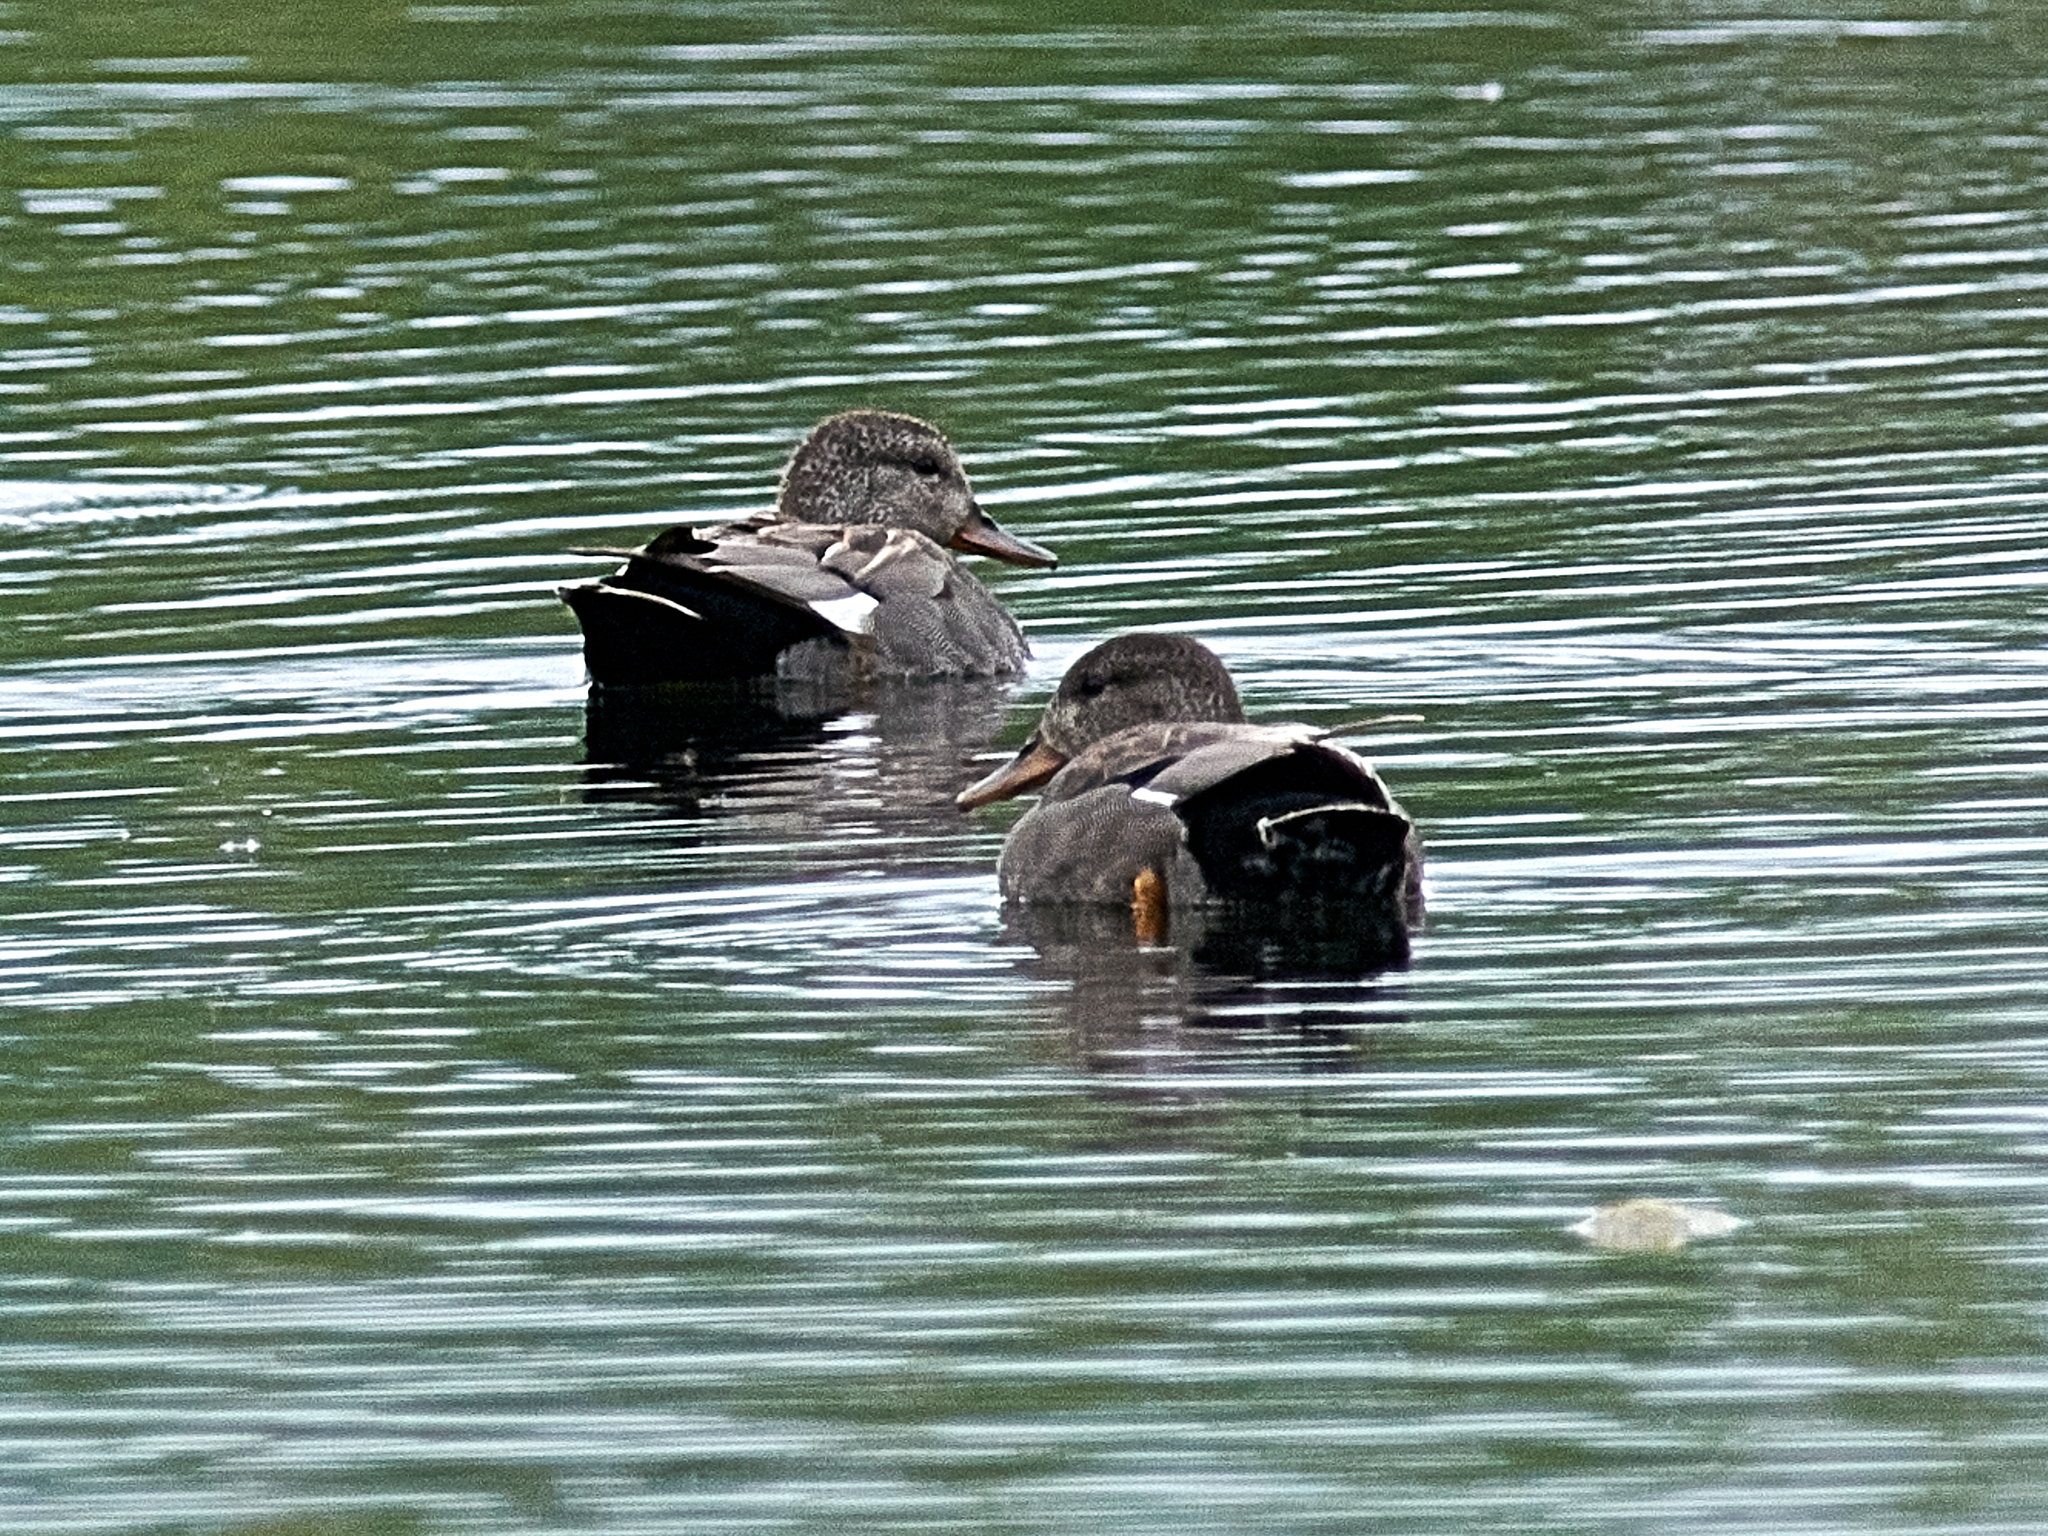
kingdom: Animalia
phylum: Chordata
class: Aves
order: Anseriformes
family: Anatidae
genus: Mareca
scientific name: Mareca strepera
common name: Gadwall
